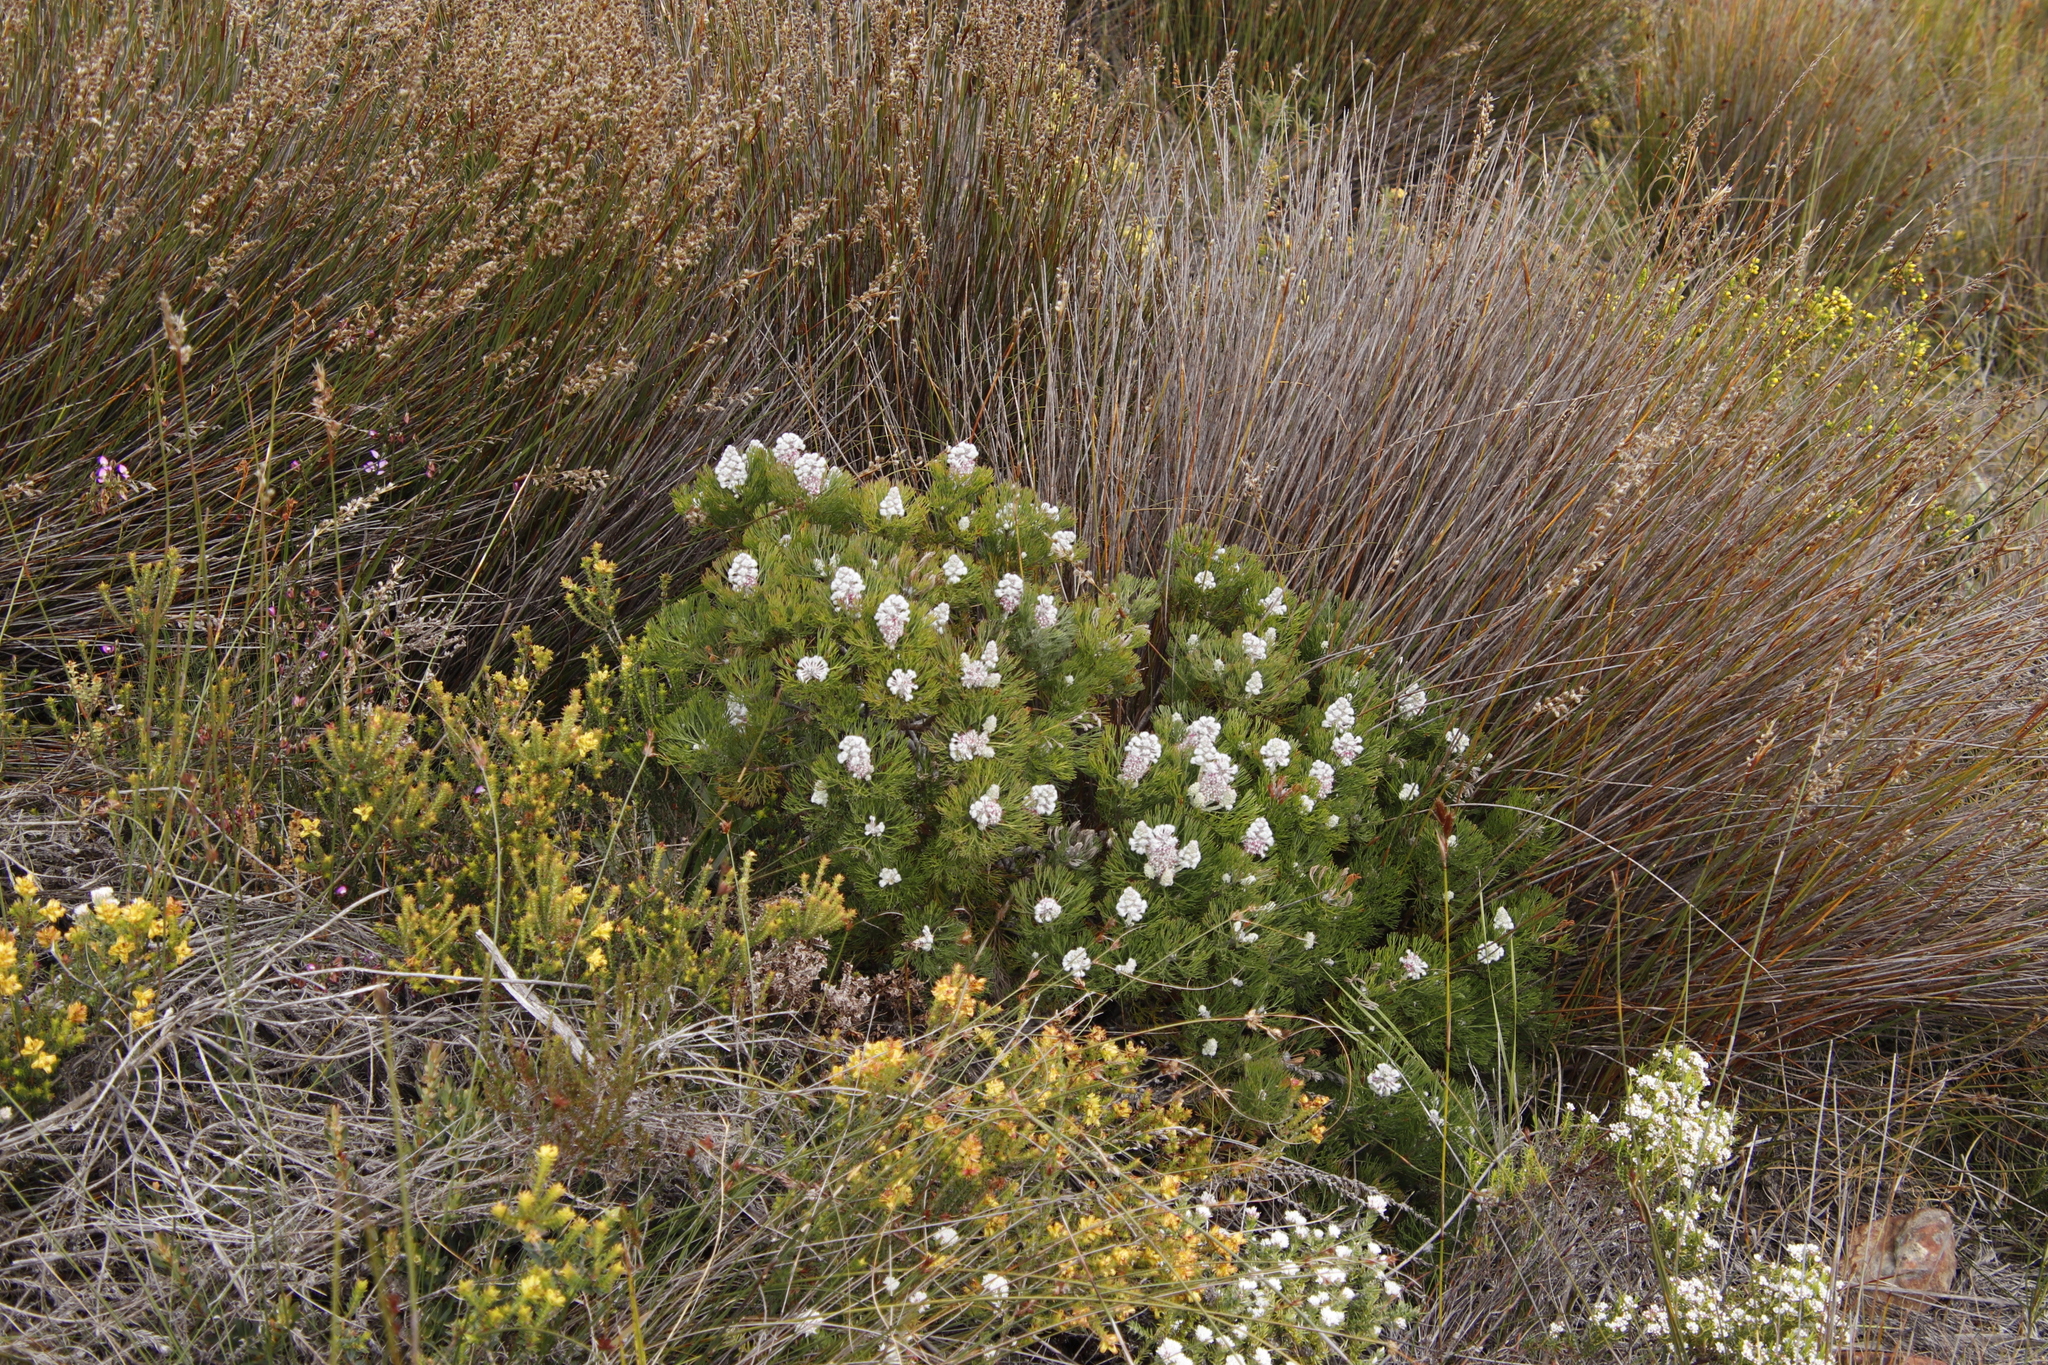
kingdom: Plantae
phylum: Tracheophyta
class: Magnoliopsida
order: Proteales
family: Proteaceae
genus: Paranomus
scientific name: Paranomus abrotanifolius
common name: Bredasdorp sceptre
